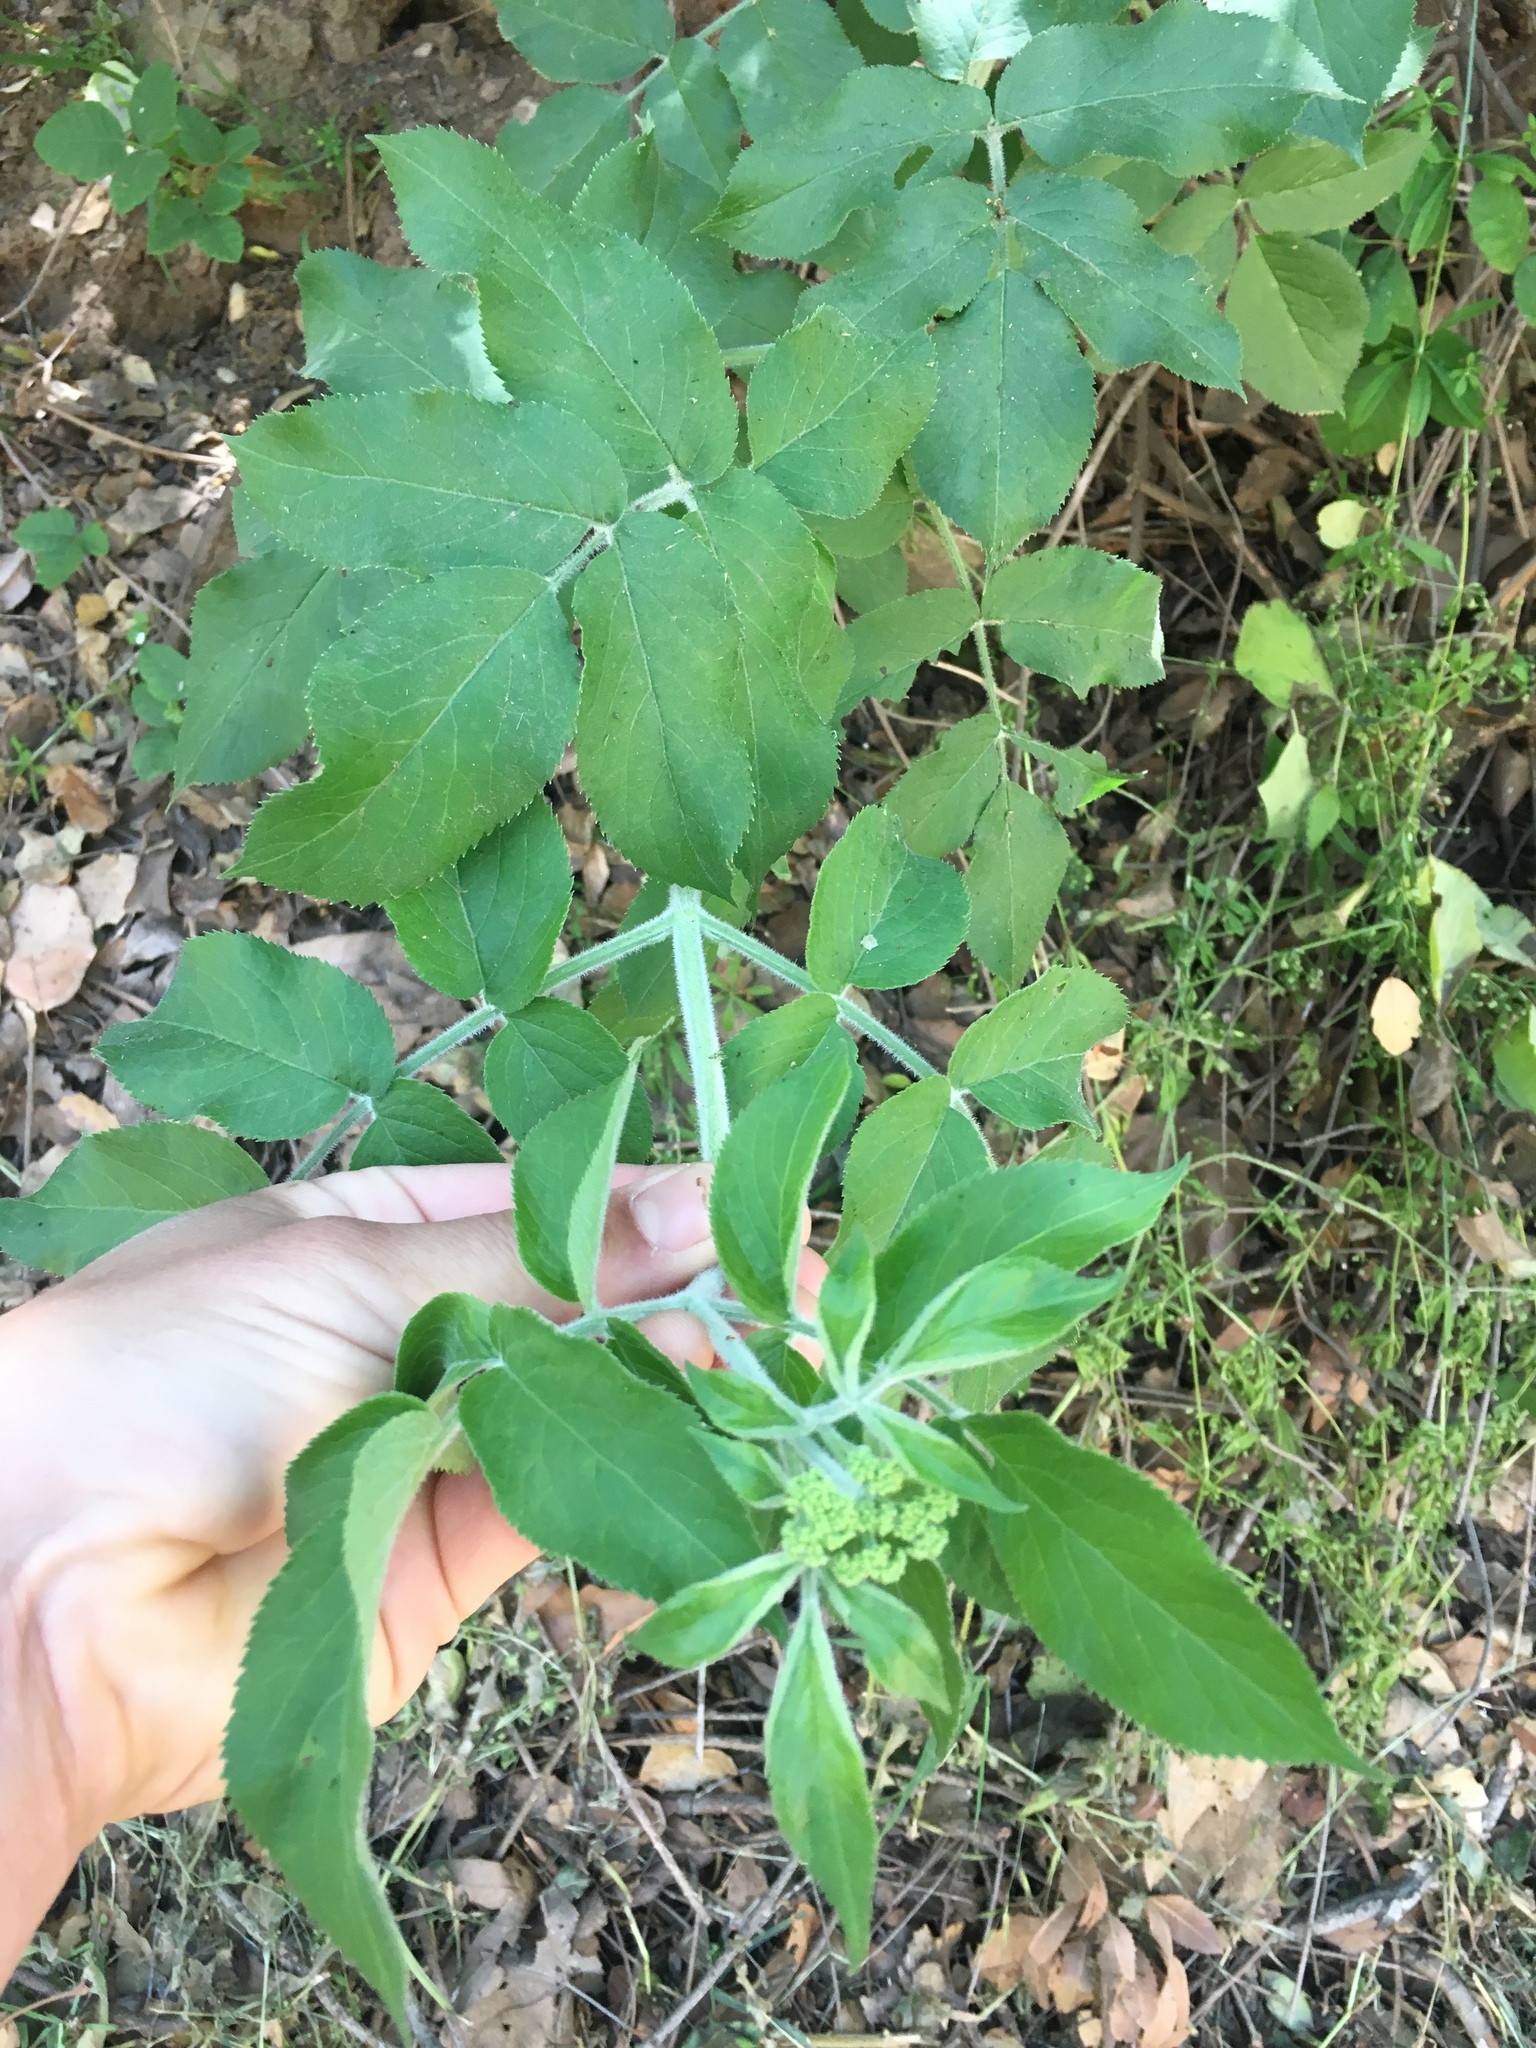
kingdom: Plantae
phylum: Tracheophyta
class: Magnoliopsida
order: Dipsacales
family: Viburnaceae
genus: Sambucus
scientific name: Sambucus cerulea
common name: Blue elder
